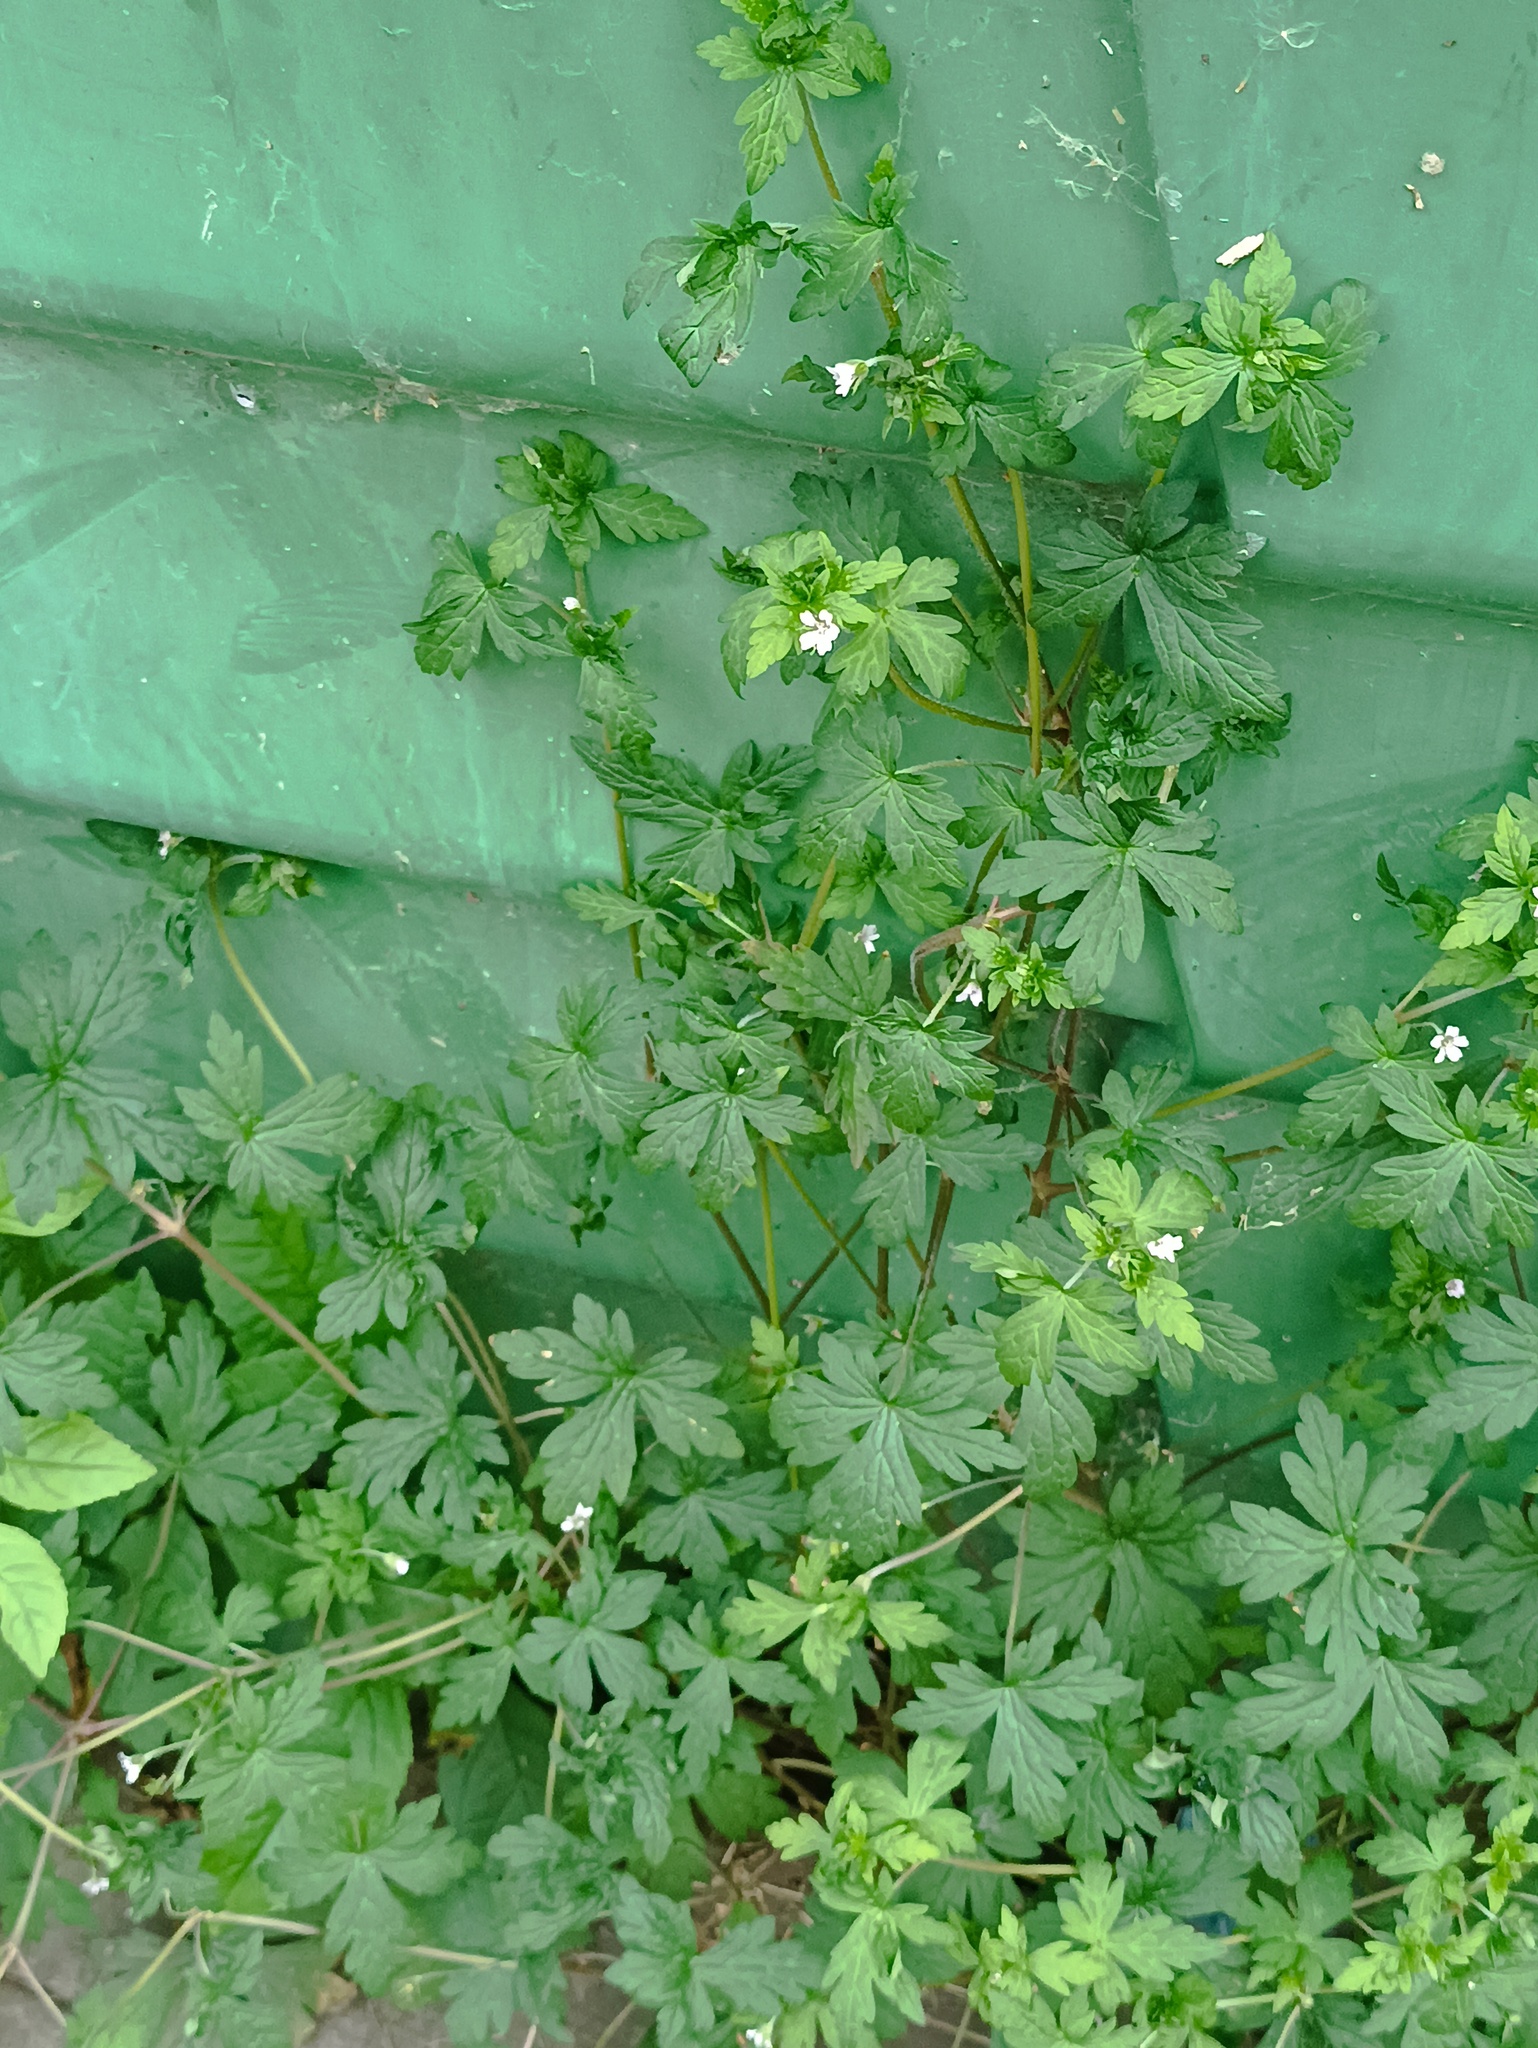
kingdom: Plantae
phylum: Tracheophyta
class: Magnoliopsida
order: Geraniales
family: Geraniaceae
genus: Geranium
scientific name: Geranium sibiricum
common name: Siberian crane's-bill
